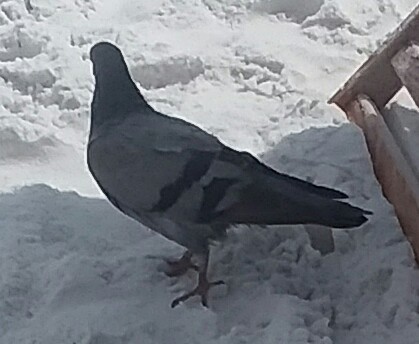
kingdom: Animalia
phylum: Chordata
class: Aves
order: Columbiformes
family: Columbidae
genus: Columba
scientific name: Columba livia
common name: Rock pigeon
